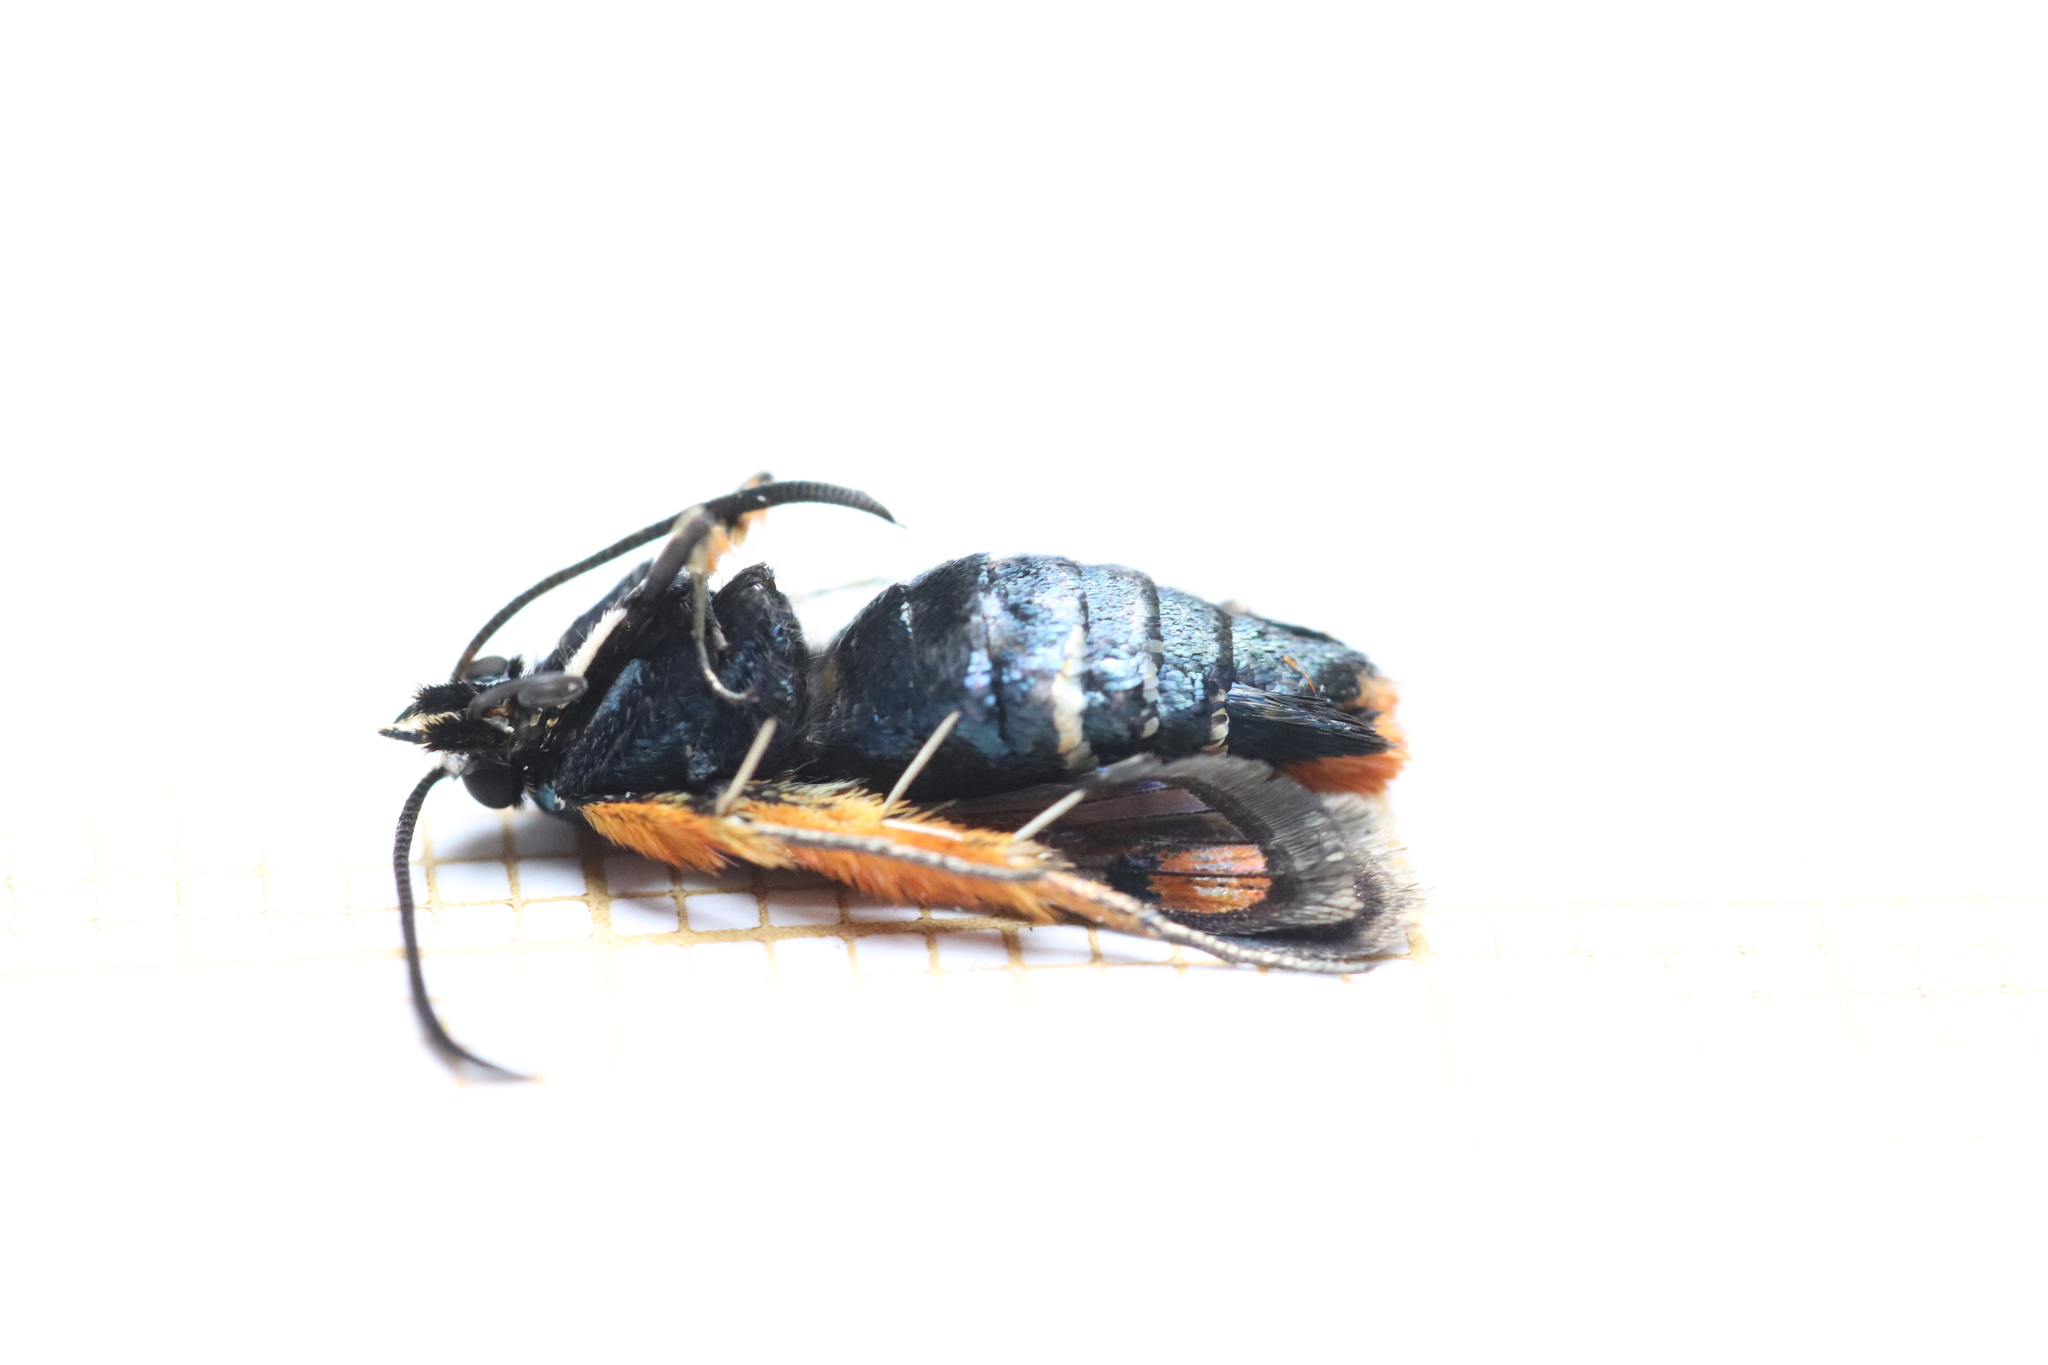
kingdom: Animalia
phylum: Arthropoda
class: Insecta
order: Lepidoptera
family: Sesiidae
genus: Pyropteron
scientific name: Pyropteron chrysidiforme
